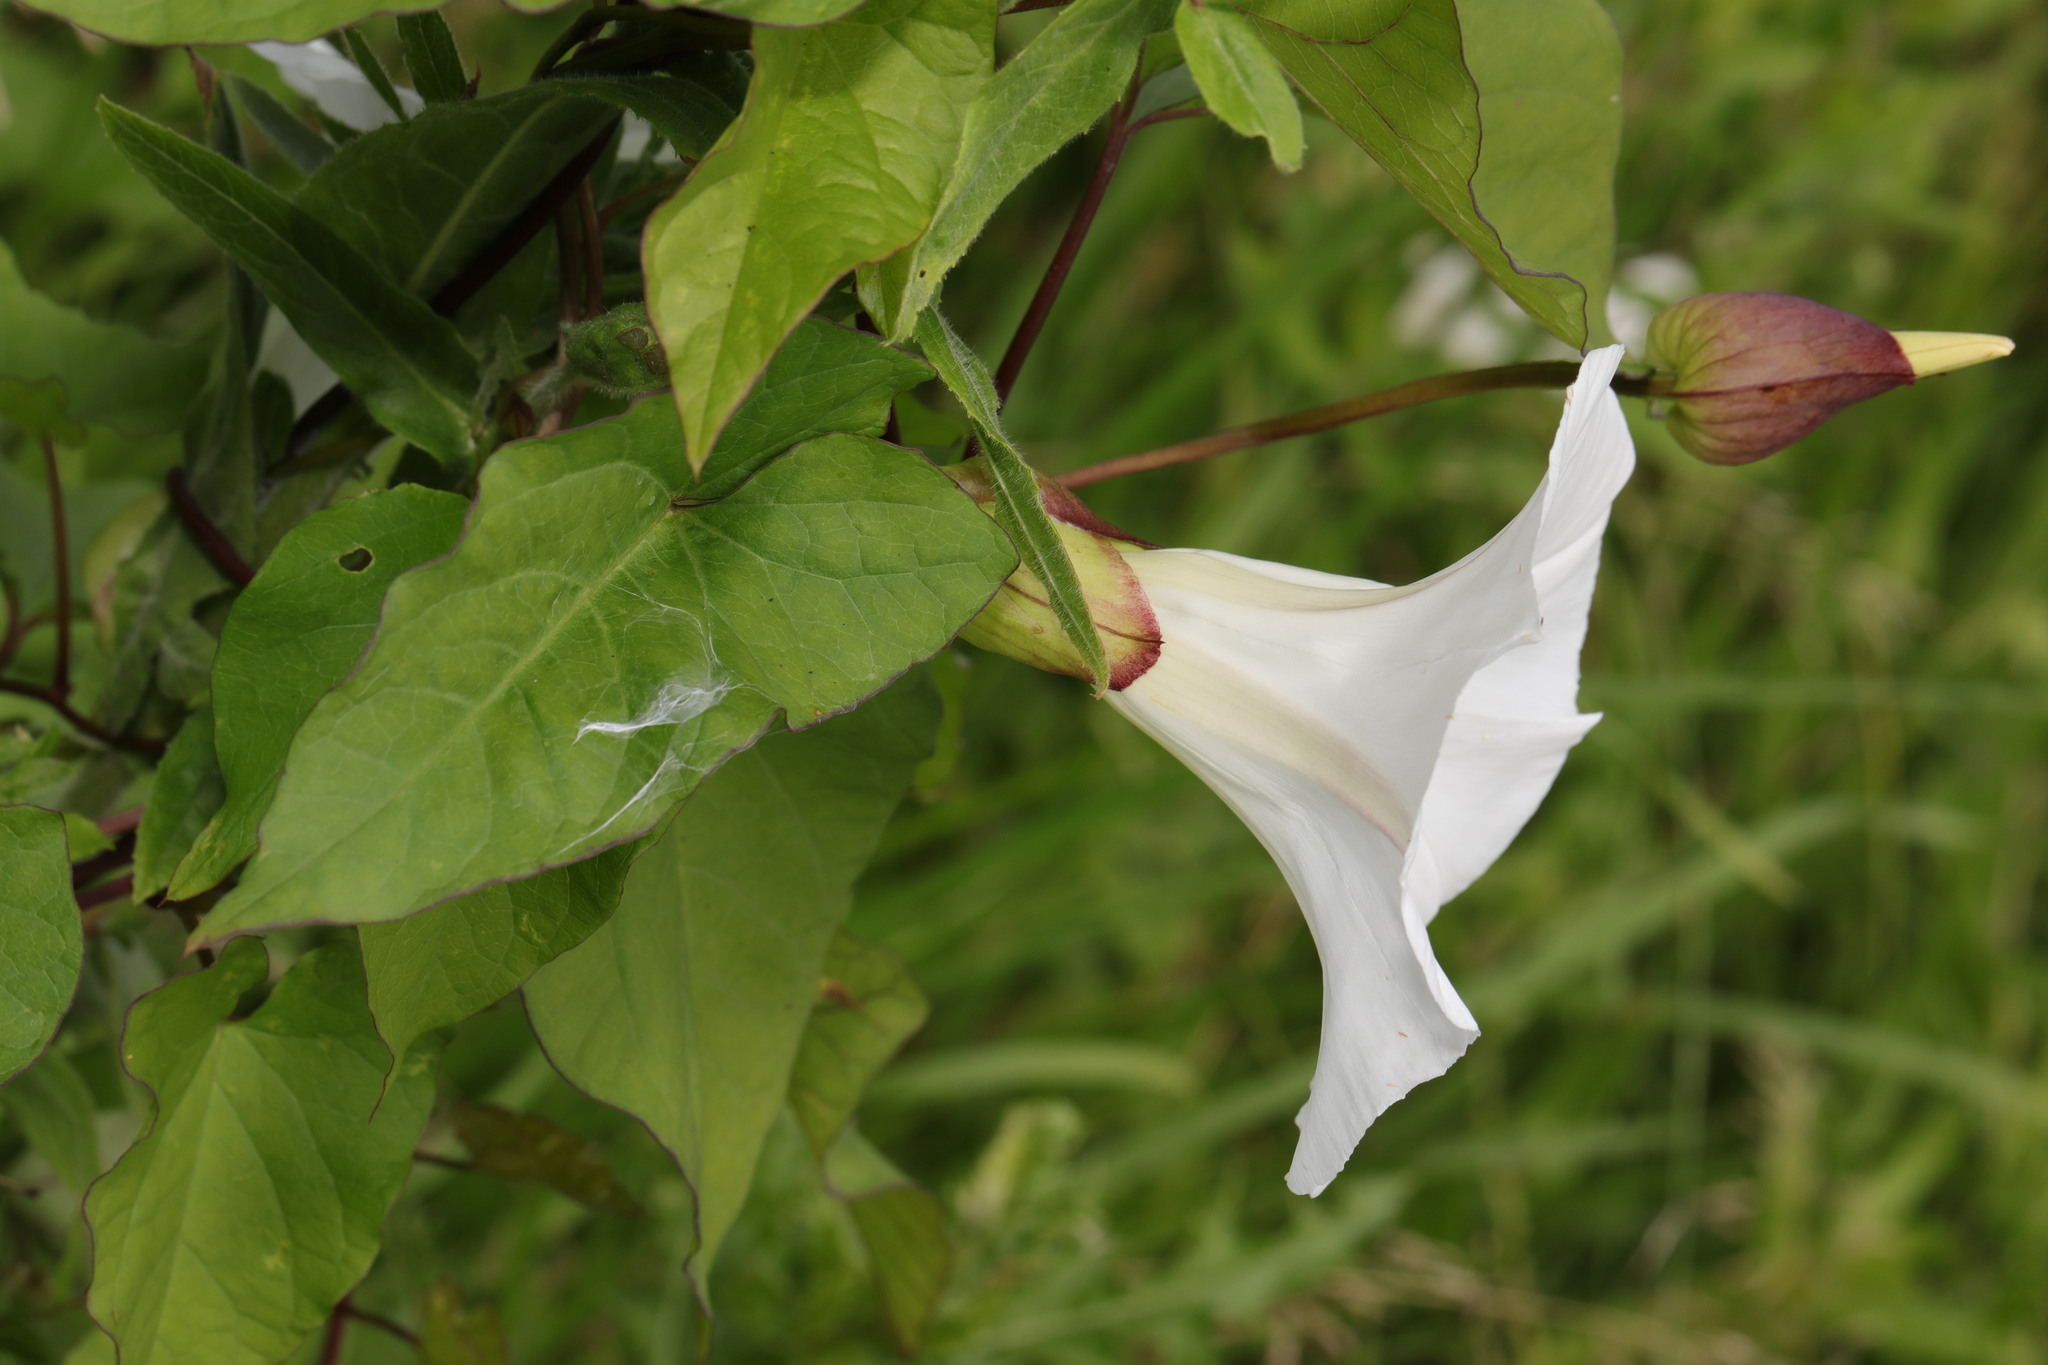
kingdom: Plantae
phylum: Tracheophyta
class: Magnoliopsida
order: Solanales
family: Convolvulaceae
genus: Calystegia
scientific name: Calystegia silvatica
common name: Large bindweed
